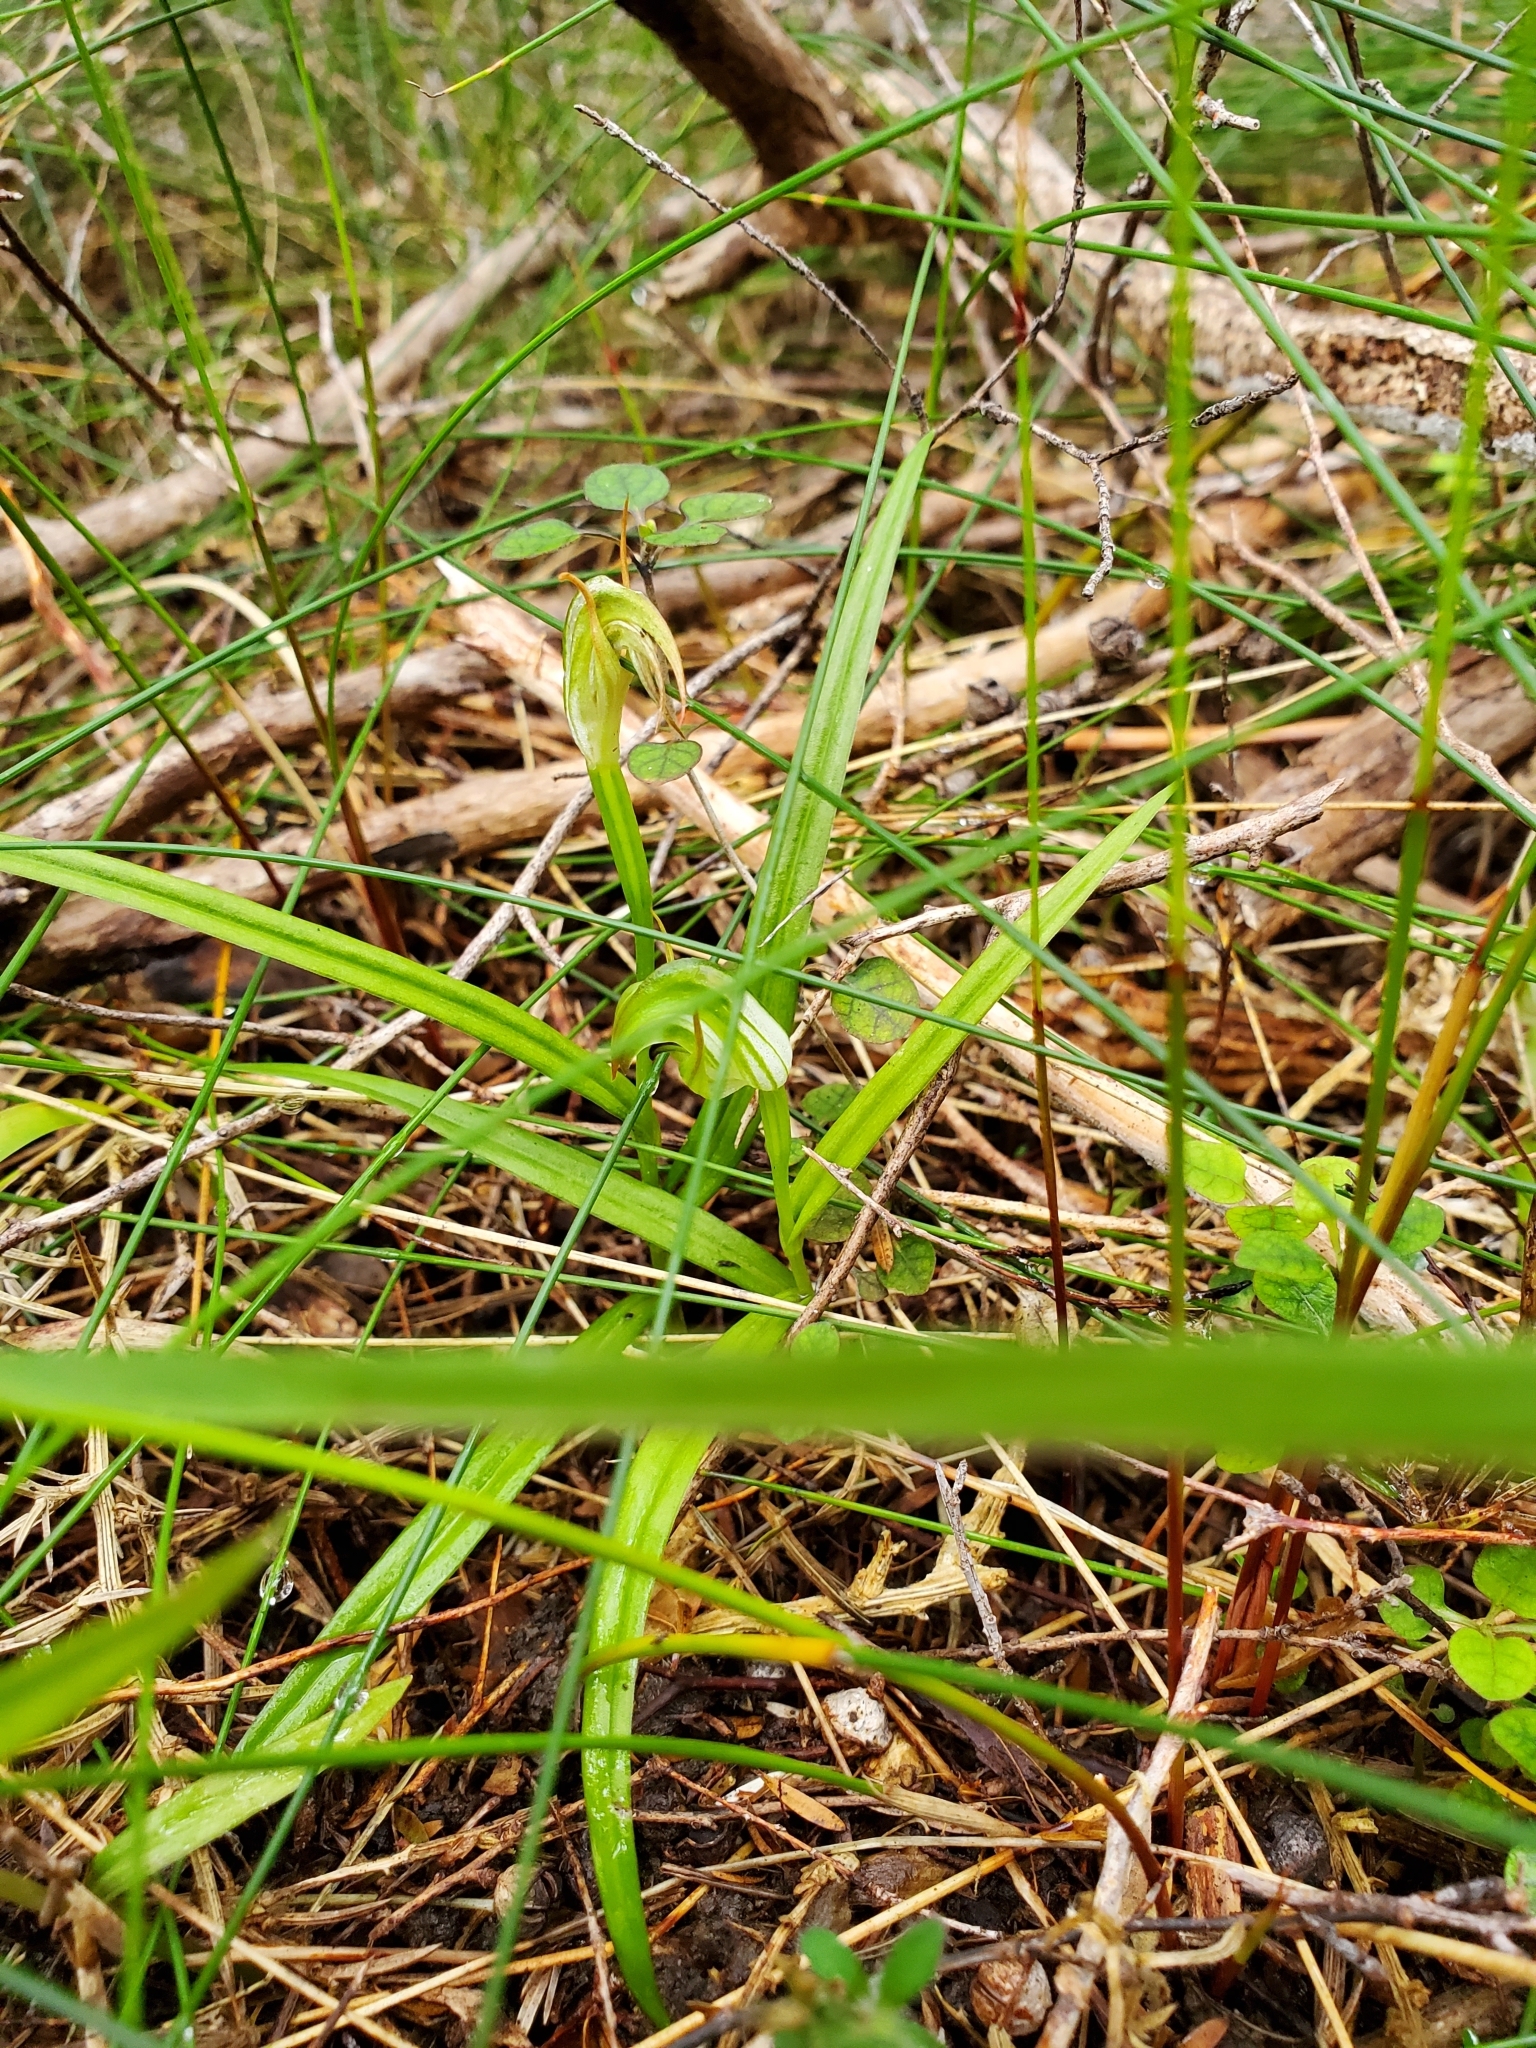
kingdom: Plantae
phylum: Tracheophyta
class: Liliopsida
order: Asparagales
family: Orchidaceae
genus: Pterostylis
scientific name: Pterostylis graminea
